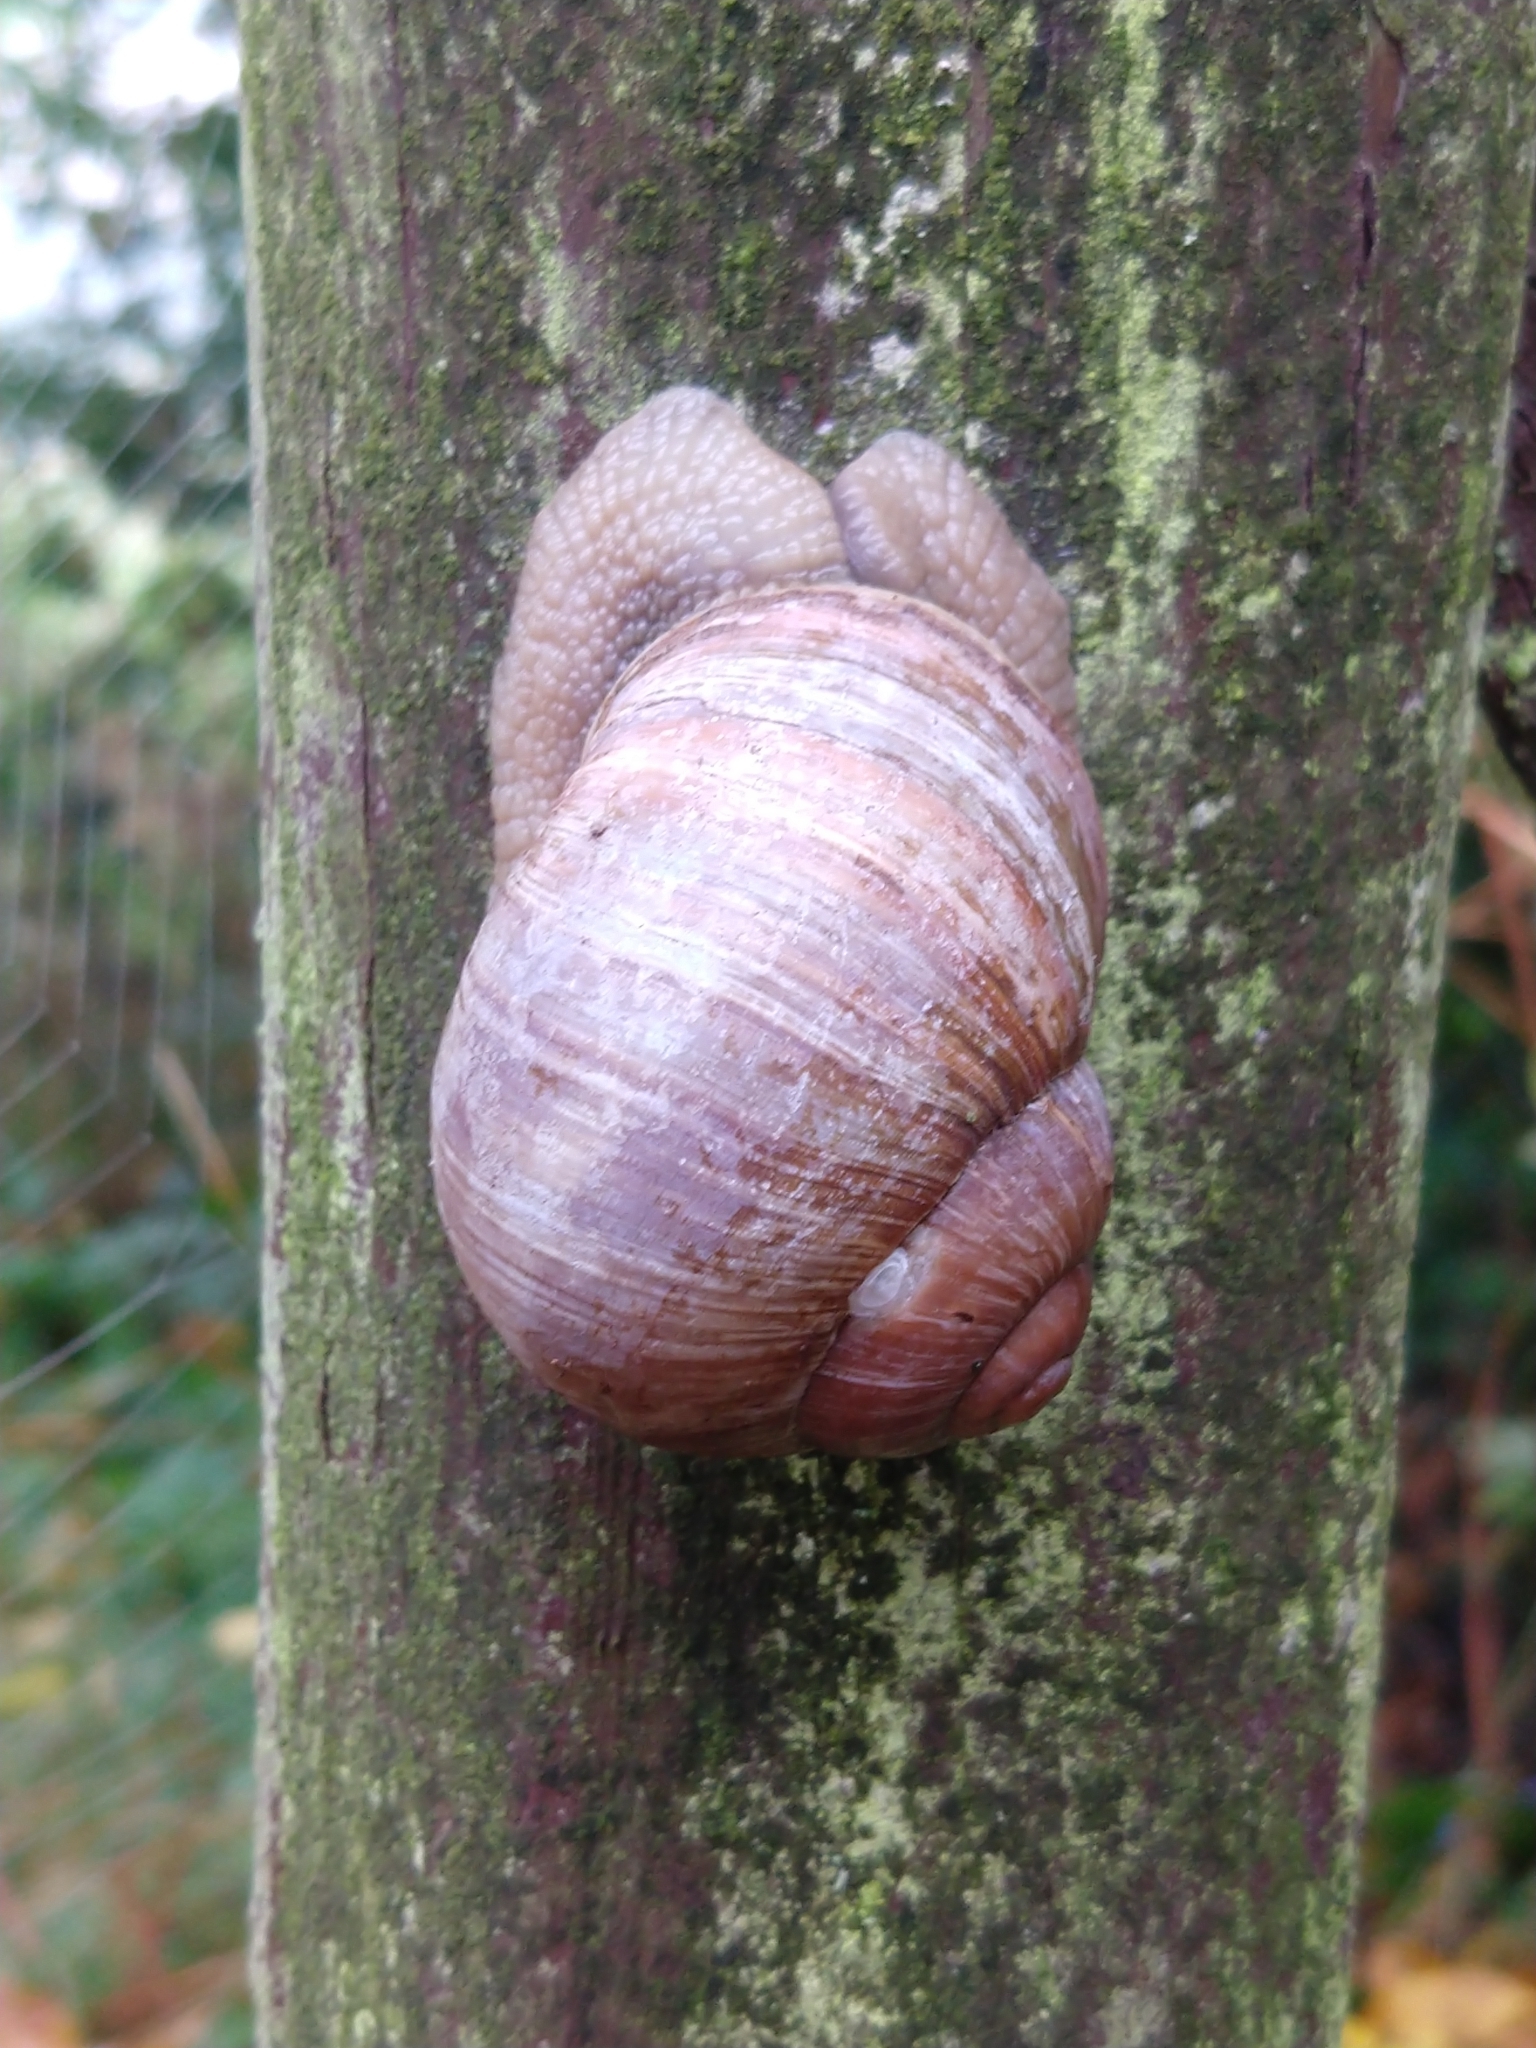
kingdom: Animalia
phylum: Mollusca
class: Gastropoda
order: Stylommatophora
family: Helicidae
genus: Helix
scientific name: Helix pomatia
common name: Roman snail
